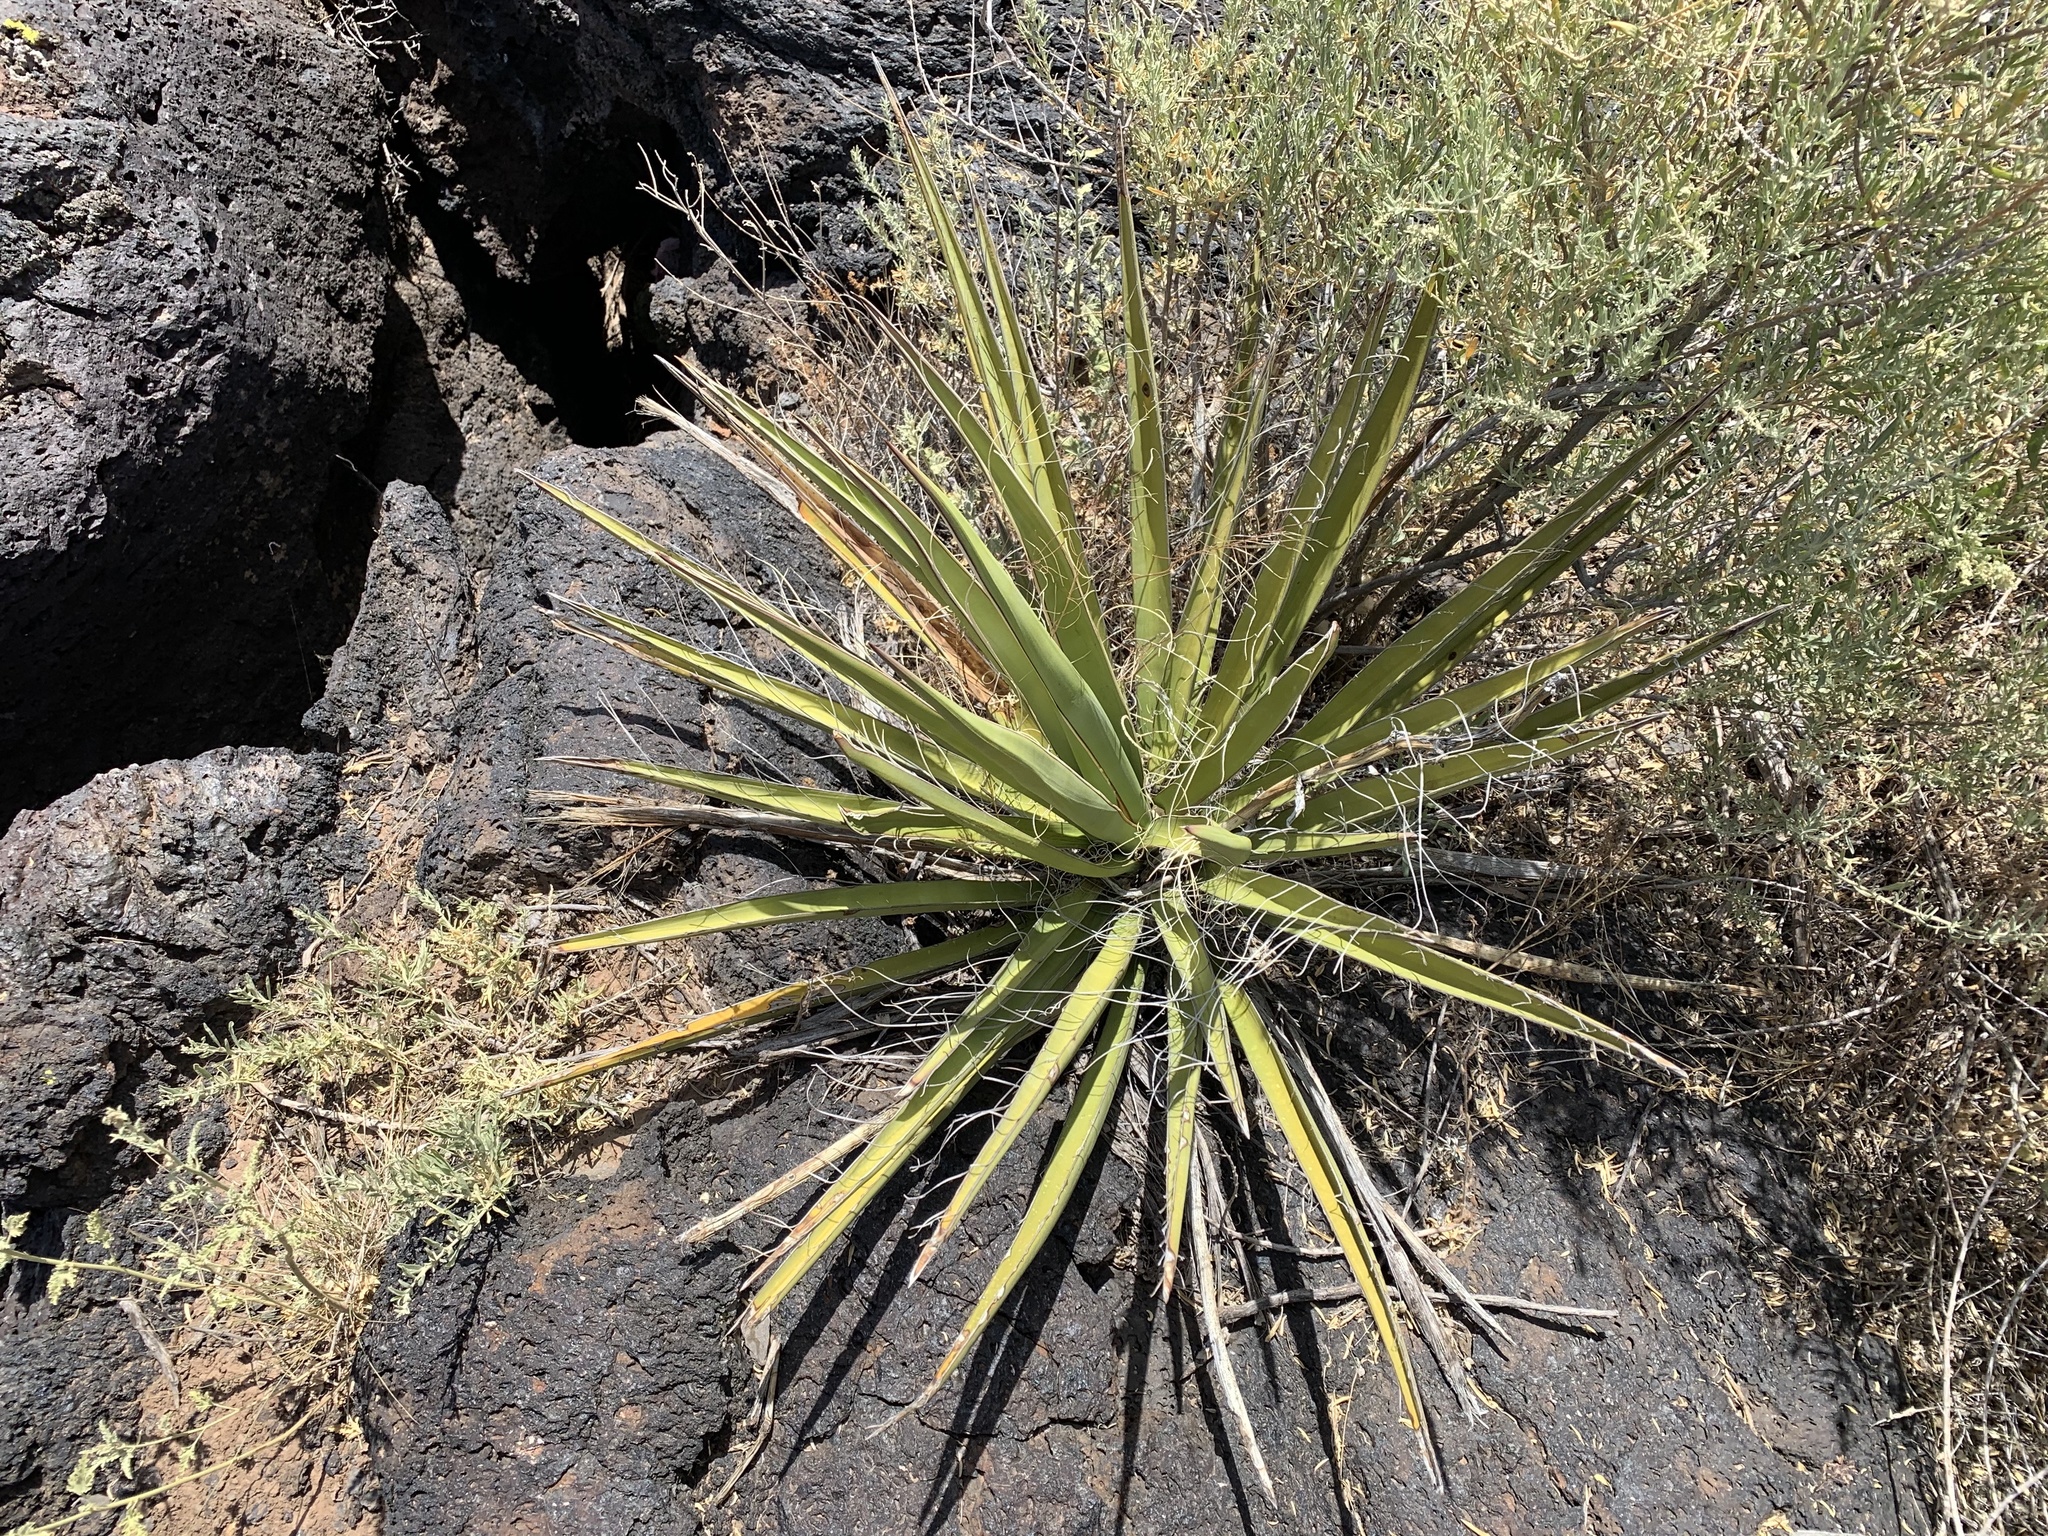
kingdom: Plantae
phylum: Tracheophyta
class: Liliopsida
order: Asparagales
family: Asparagaceae
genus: Yucca
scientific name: Yucca baccata
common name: Banana yucca
